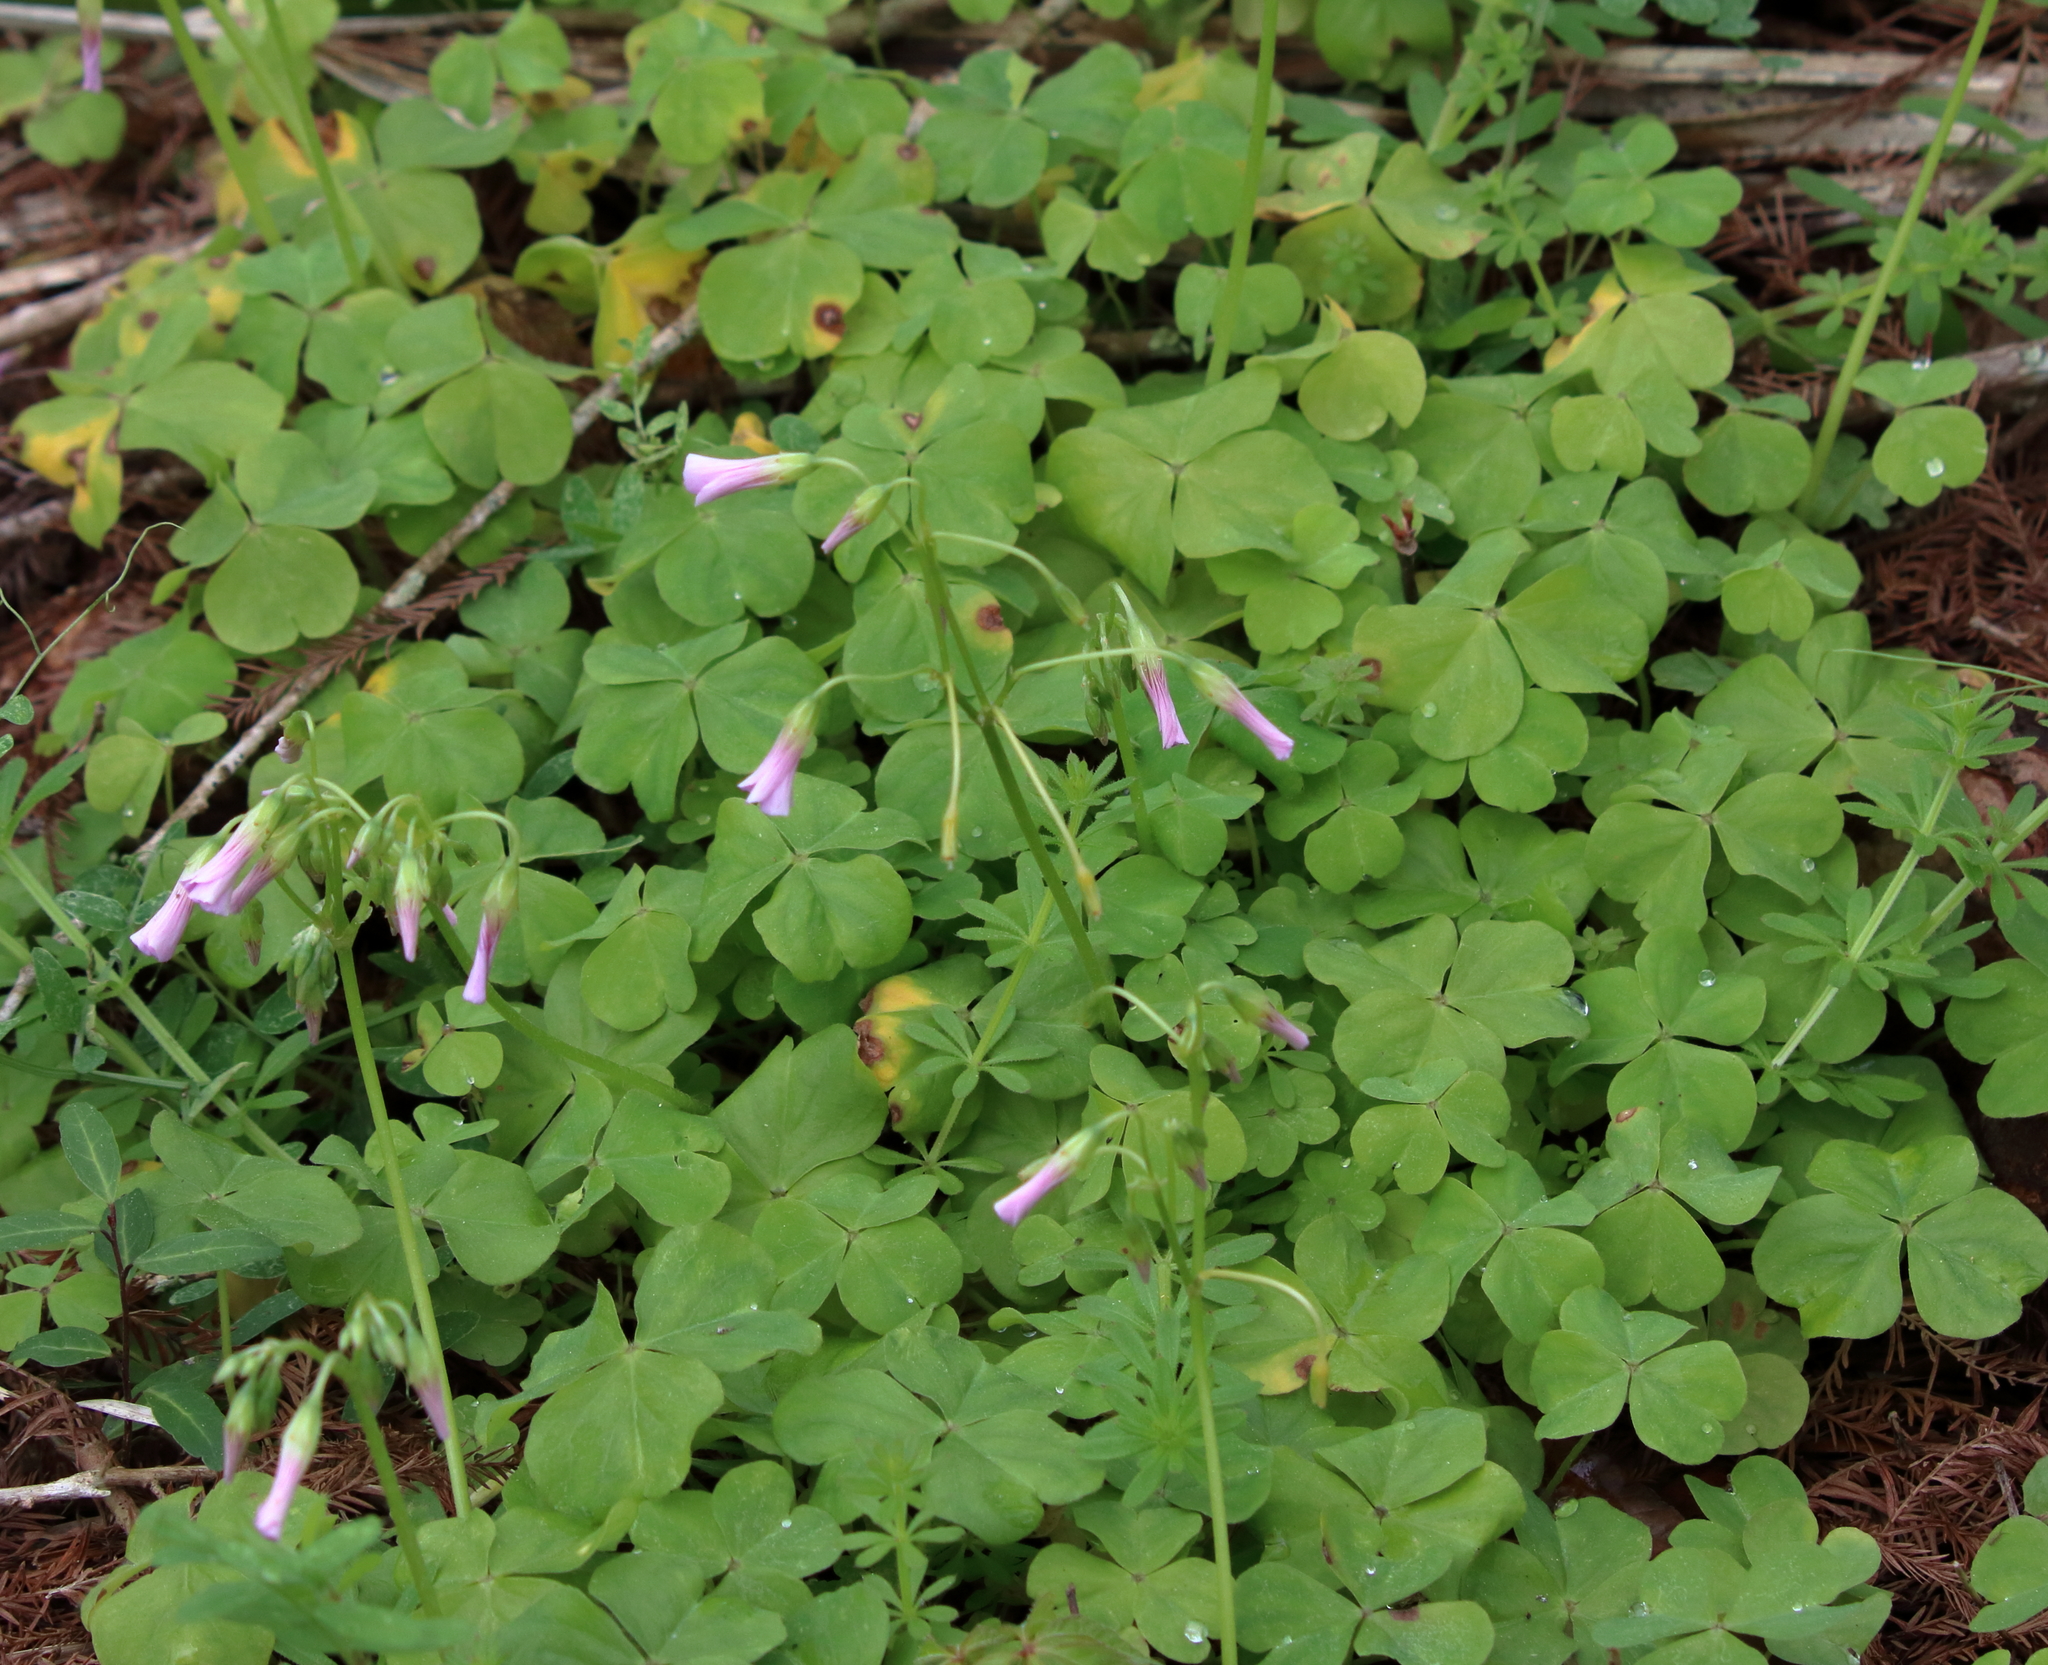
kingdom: Plantae
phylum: Tracheophyta
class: Magnoliopsida
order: Oxalidales
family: Oxalidaceae
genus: Oxalis
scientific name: Oxalis debilis
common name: Large-flowered pink-sorrel
